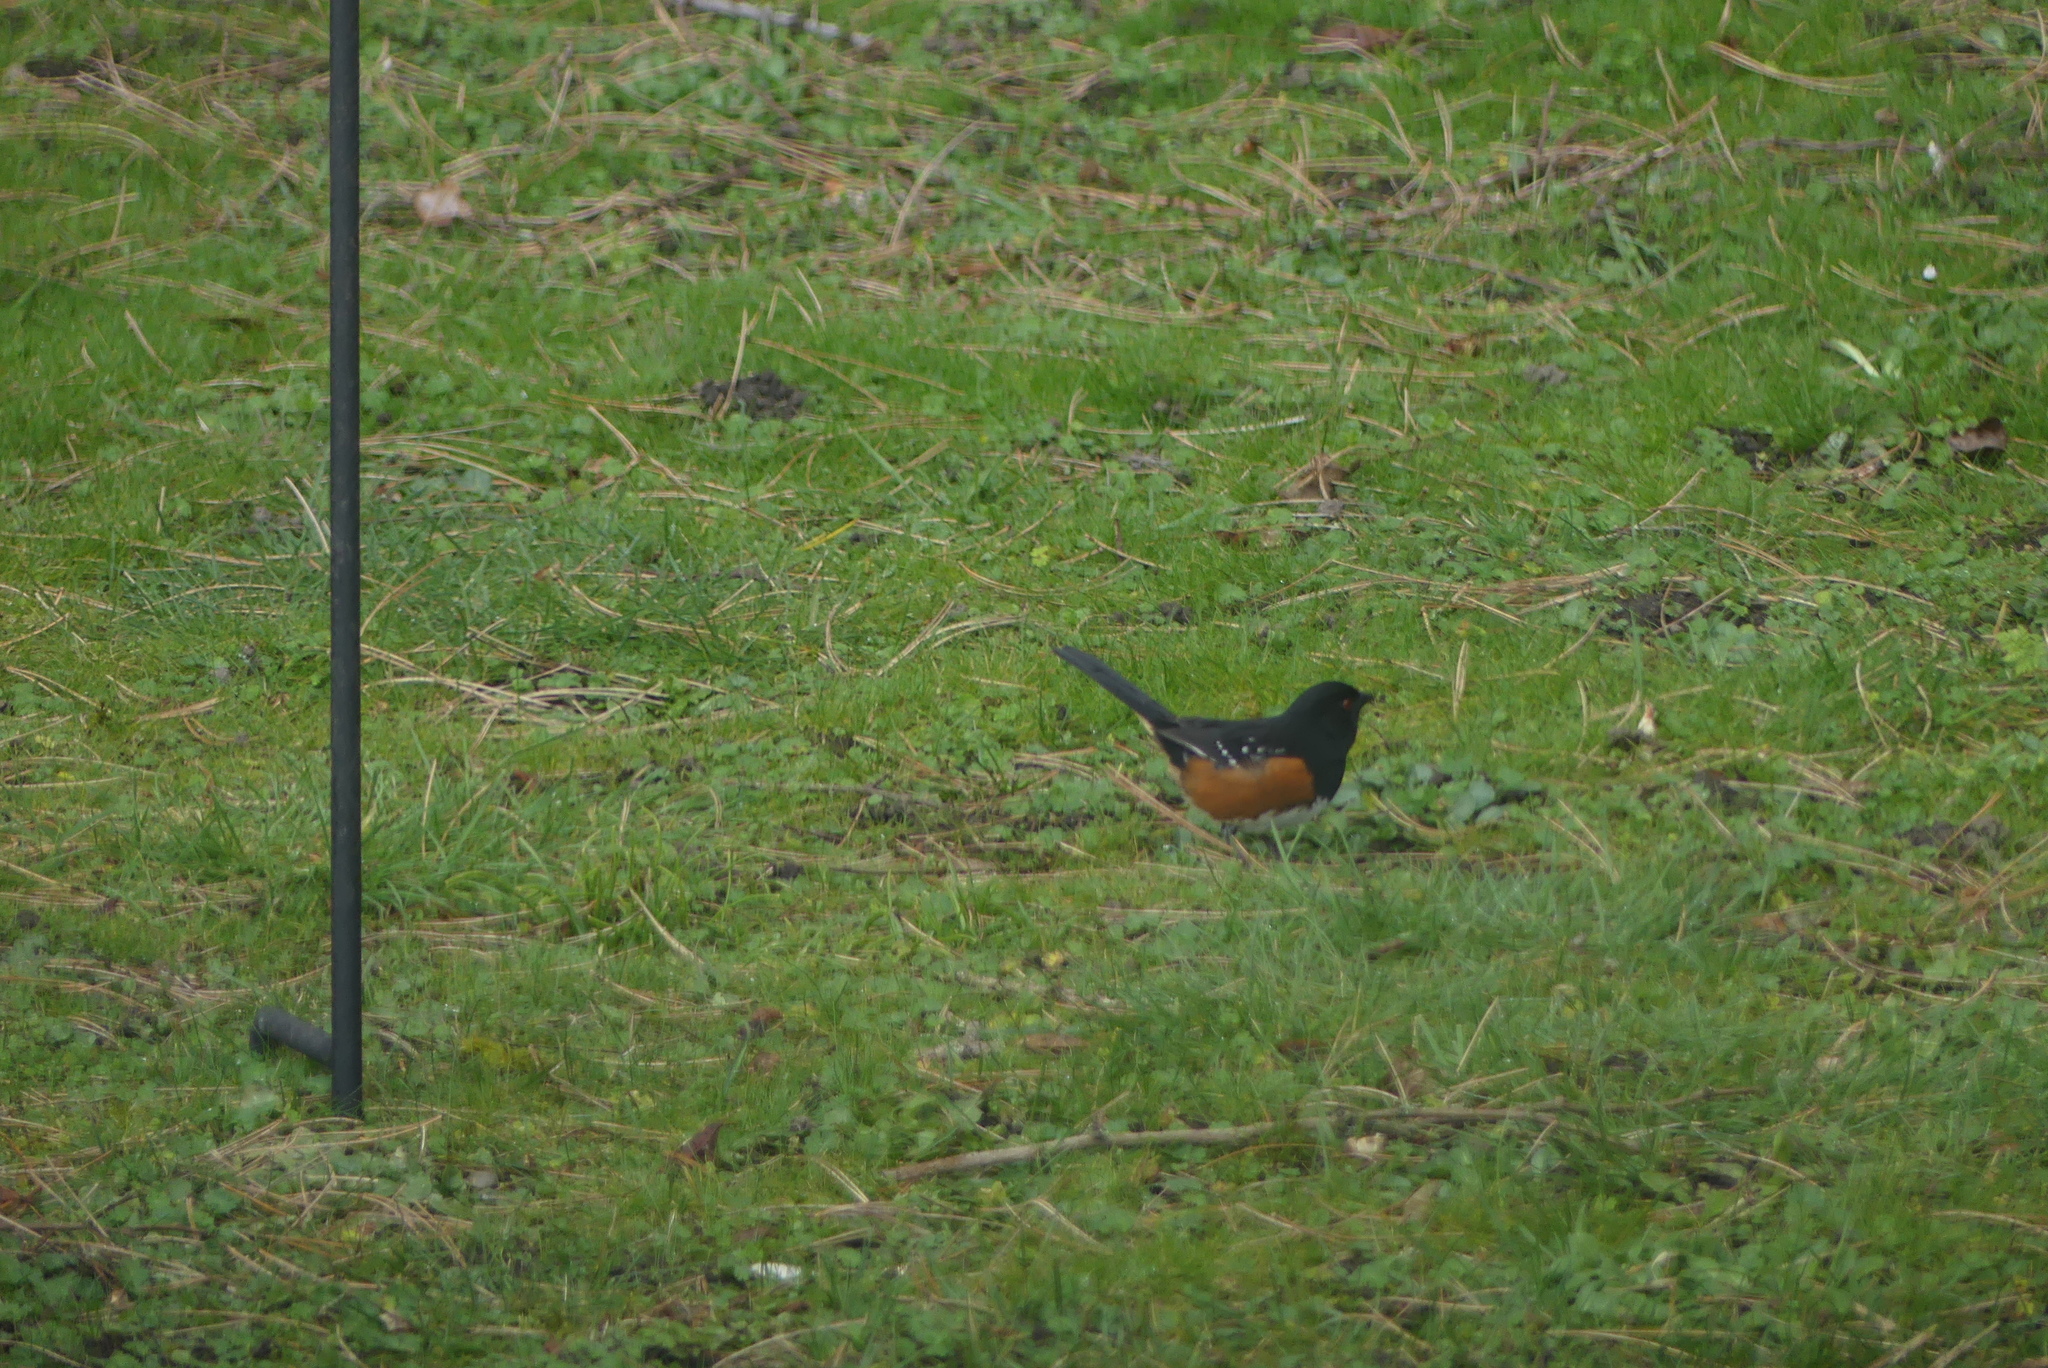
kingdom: Animalia
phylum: Chordata
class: Aves
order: Passeriformes
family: Passerellidae
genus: Pipilo
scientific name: Pipilo maculatus
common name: Spotted towhee
